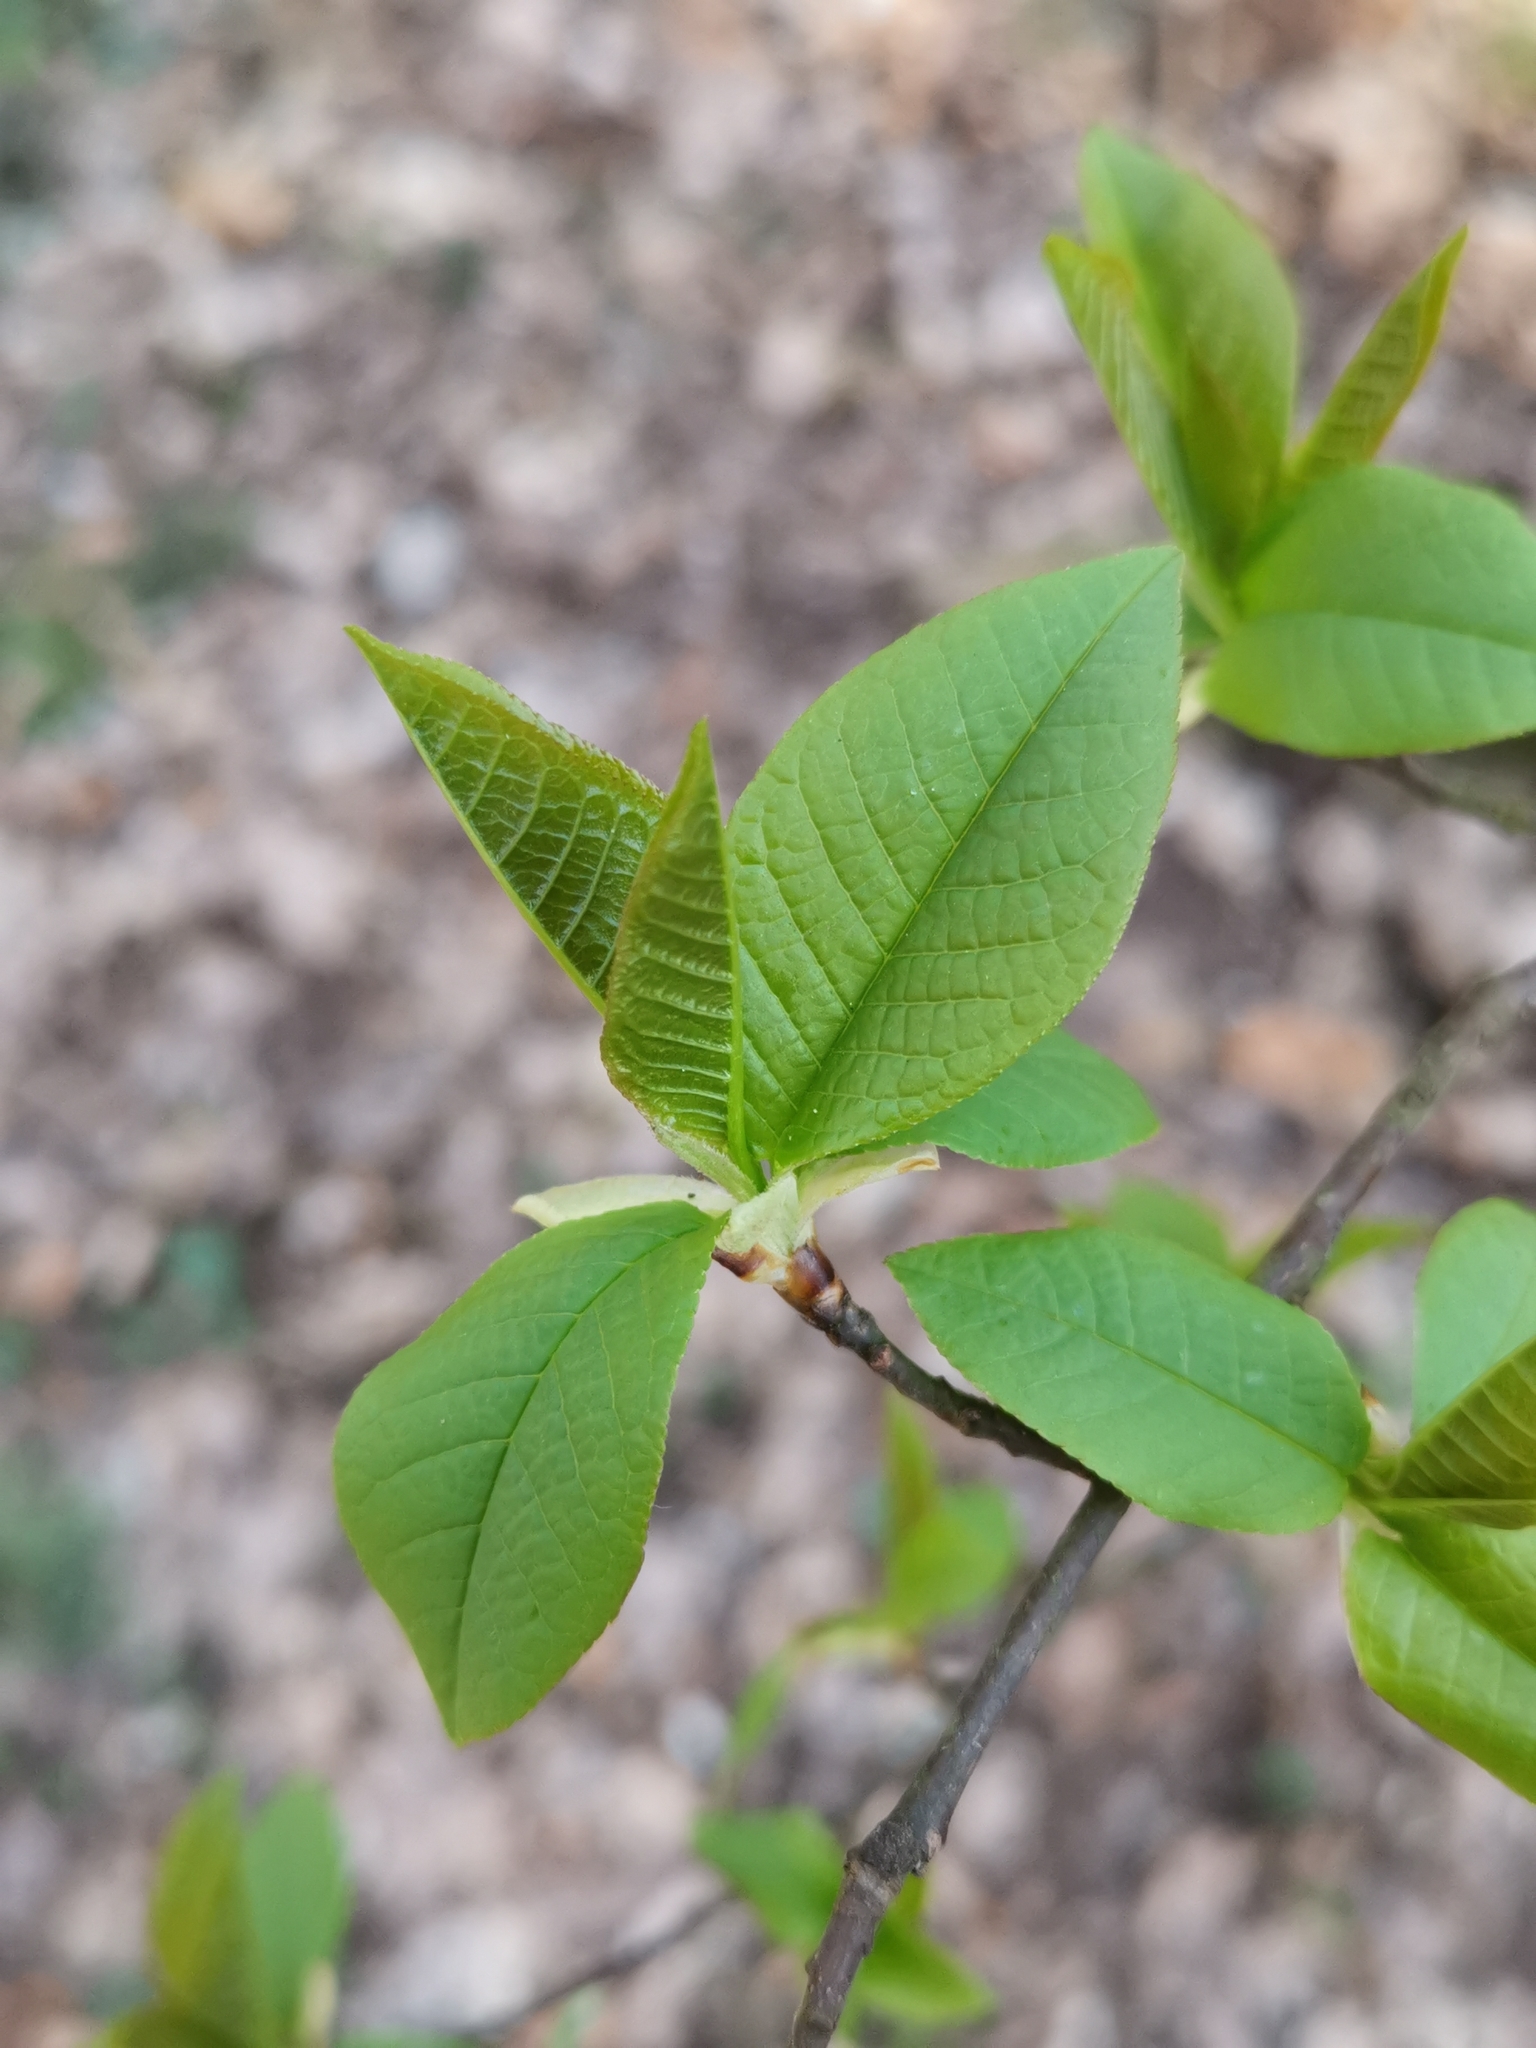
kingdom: Plantae
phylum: Tracheophyta
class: Magnoliopsida
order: Rosales
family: Rosaceae
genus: Prunus
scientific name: Prunus padus
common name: Bird cherry
